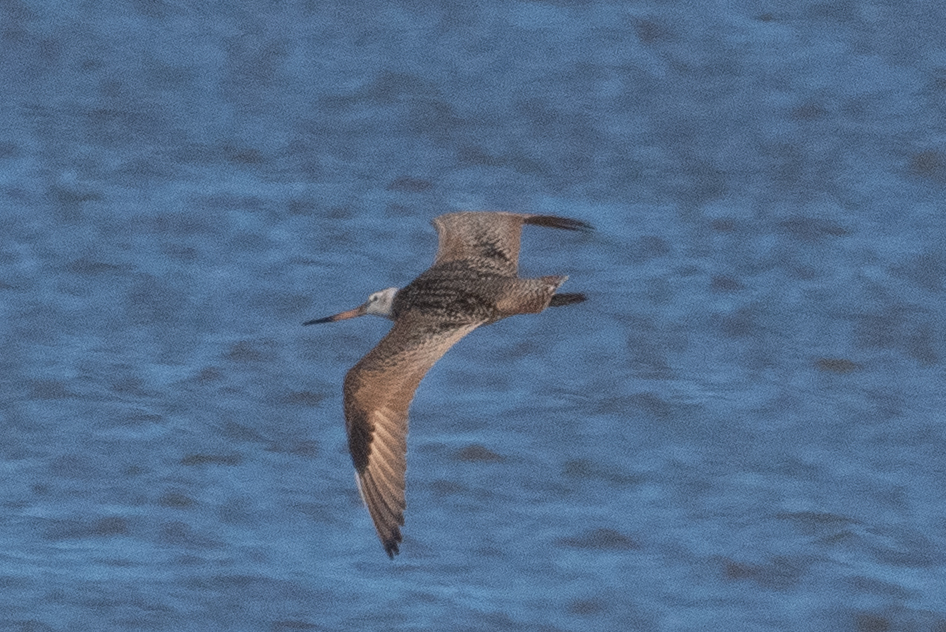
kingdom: Animalia
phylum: Chordata
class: Aves
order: Charadriiformes
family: Scolopacidae
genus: Limosa
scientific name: Limosa fedoa
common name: Marbled godwit
